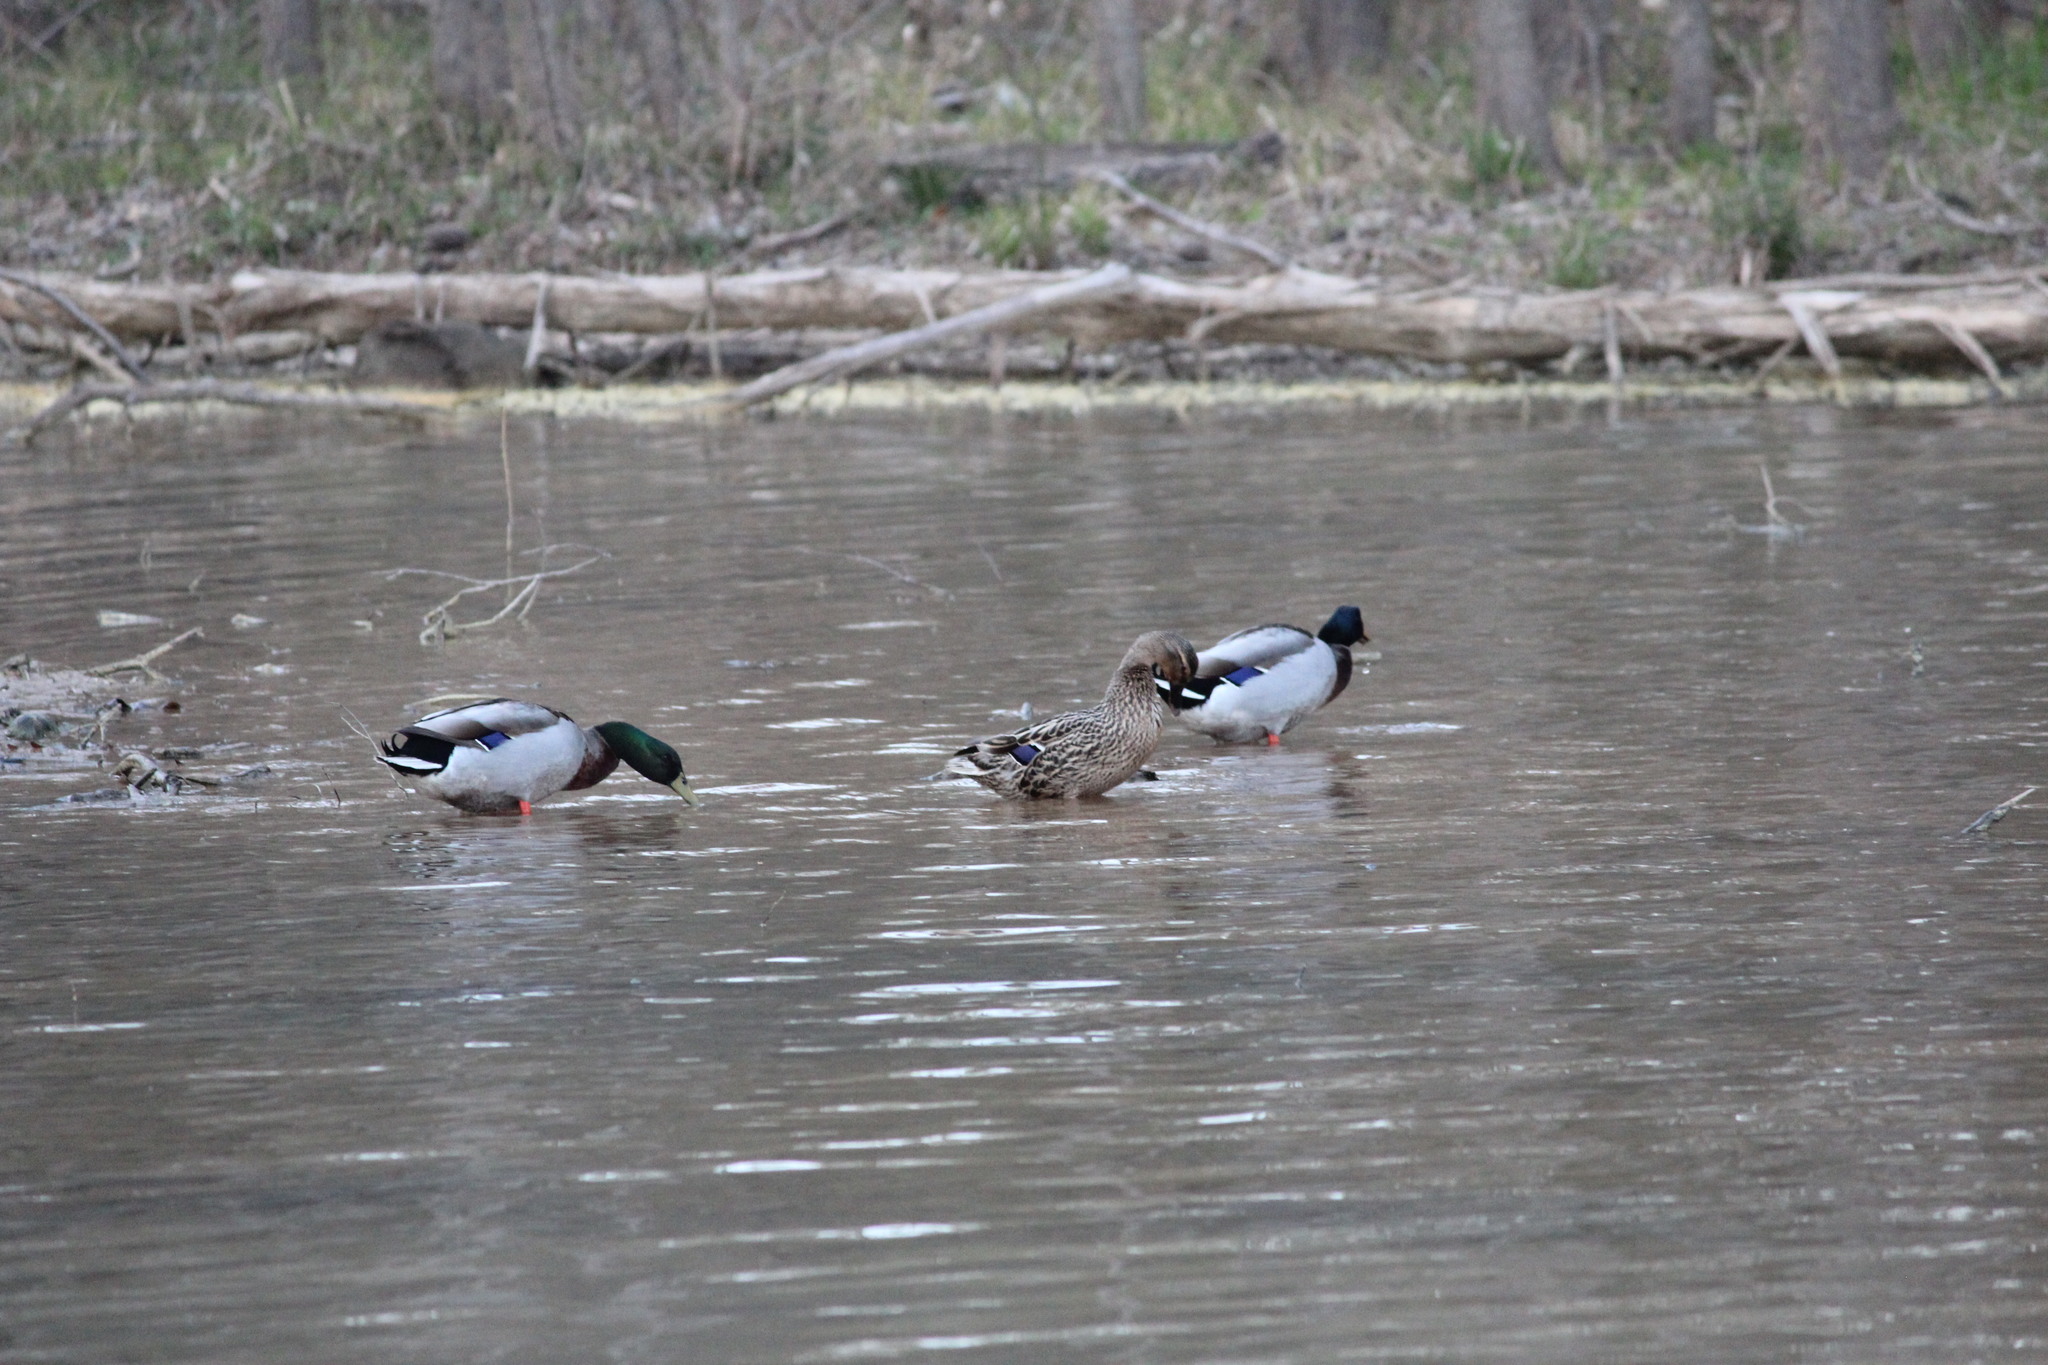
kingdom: Animalia
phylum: Chordata
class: Aves
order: Anseriformes
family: Anatidae
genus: Anas
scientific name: Anas platyrhynchos
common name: Mallard
